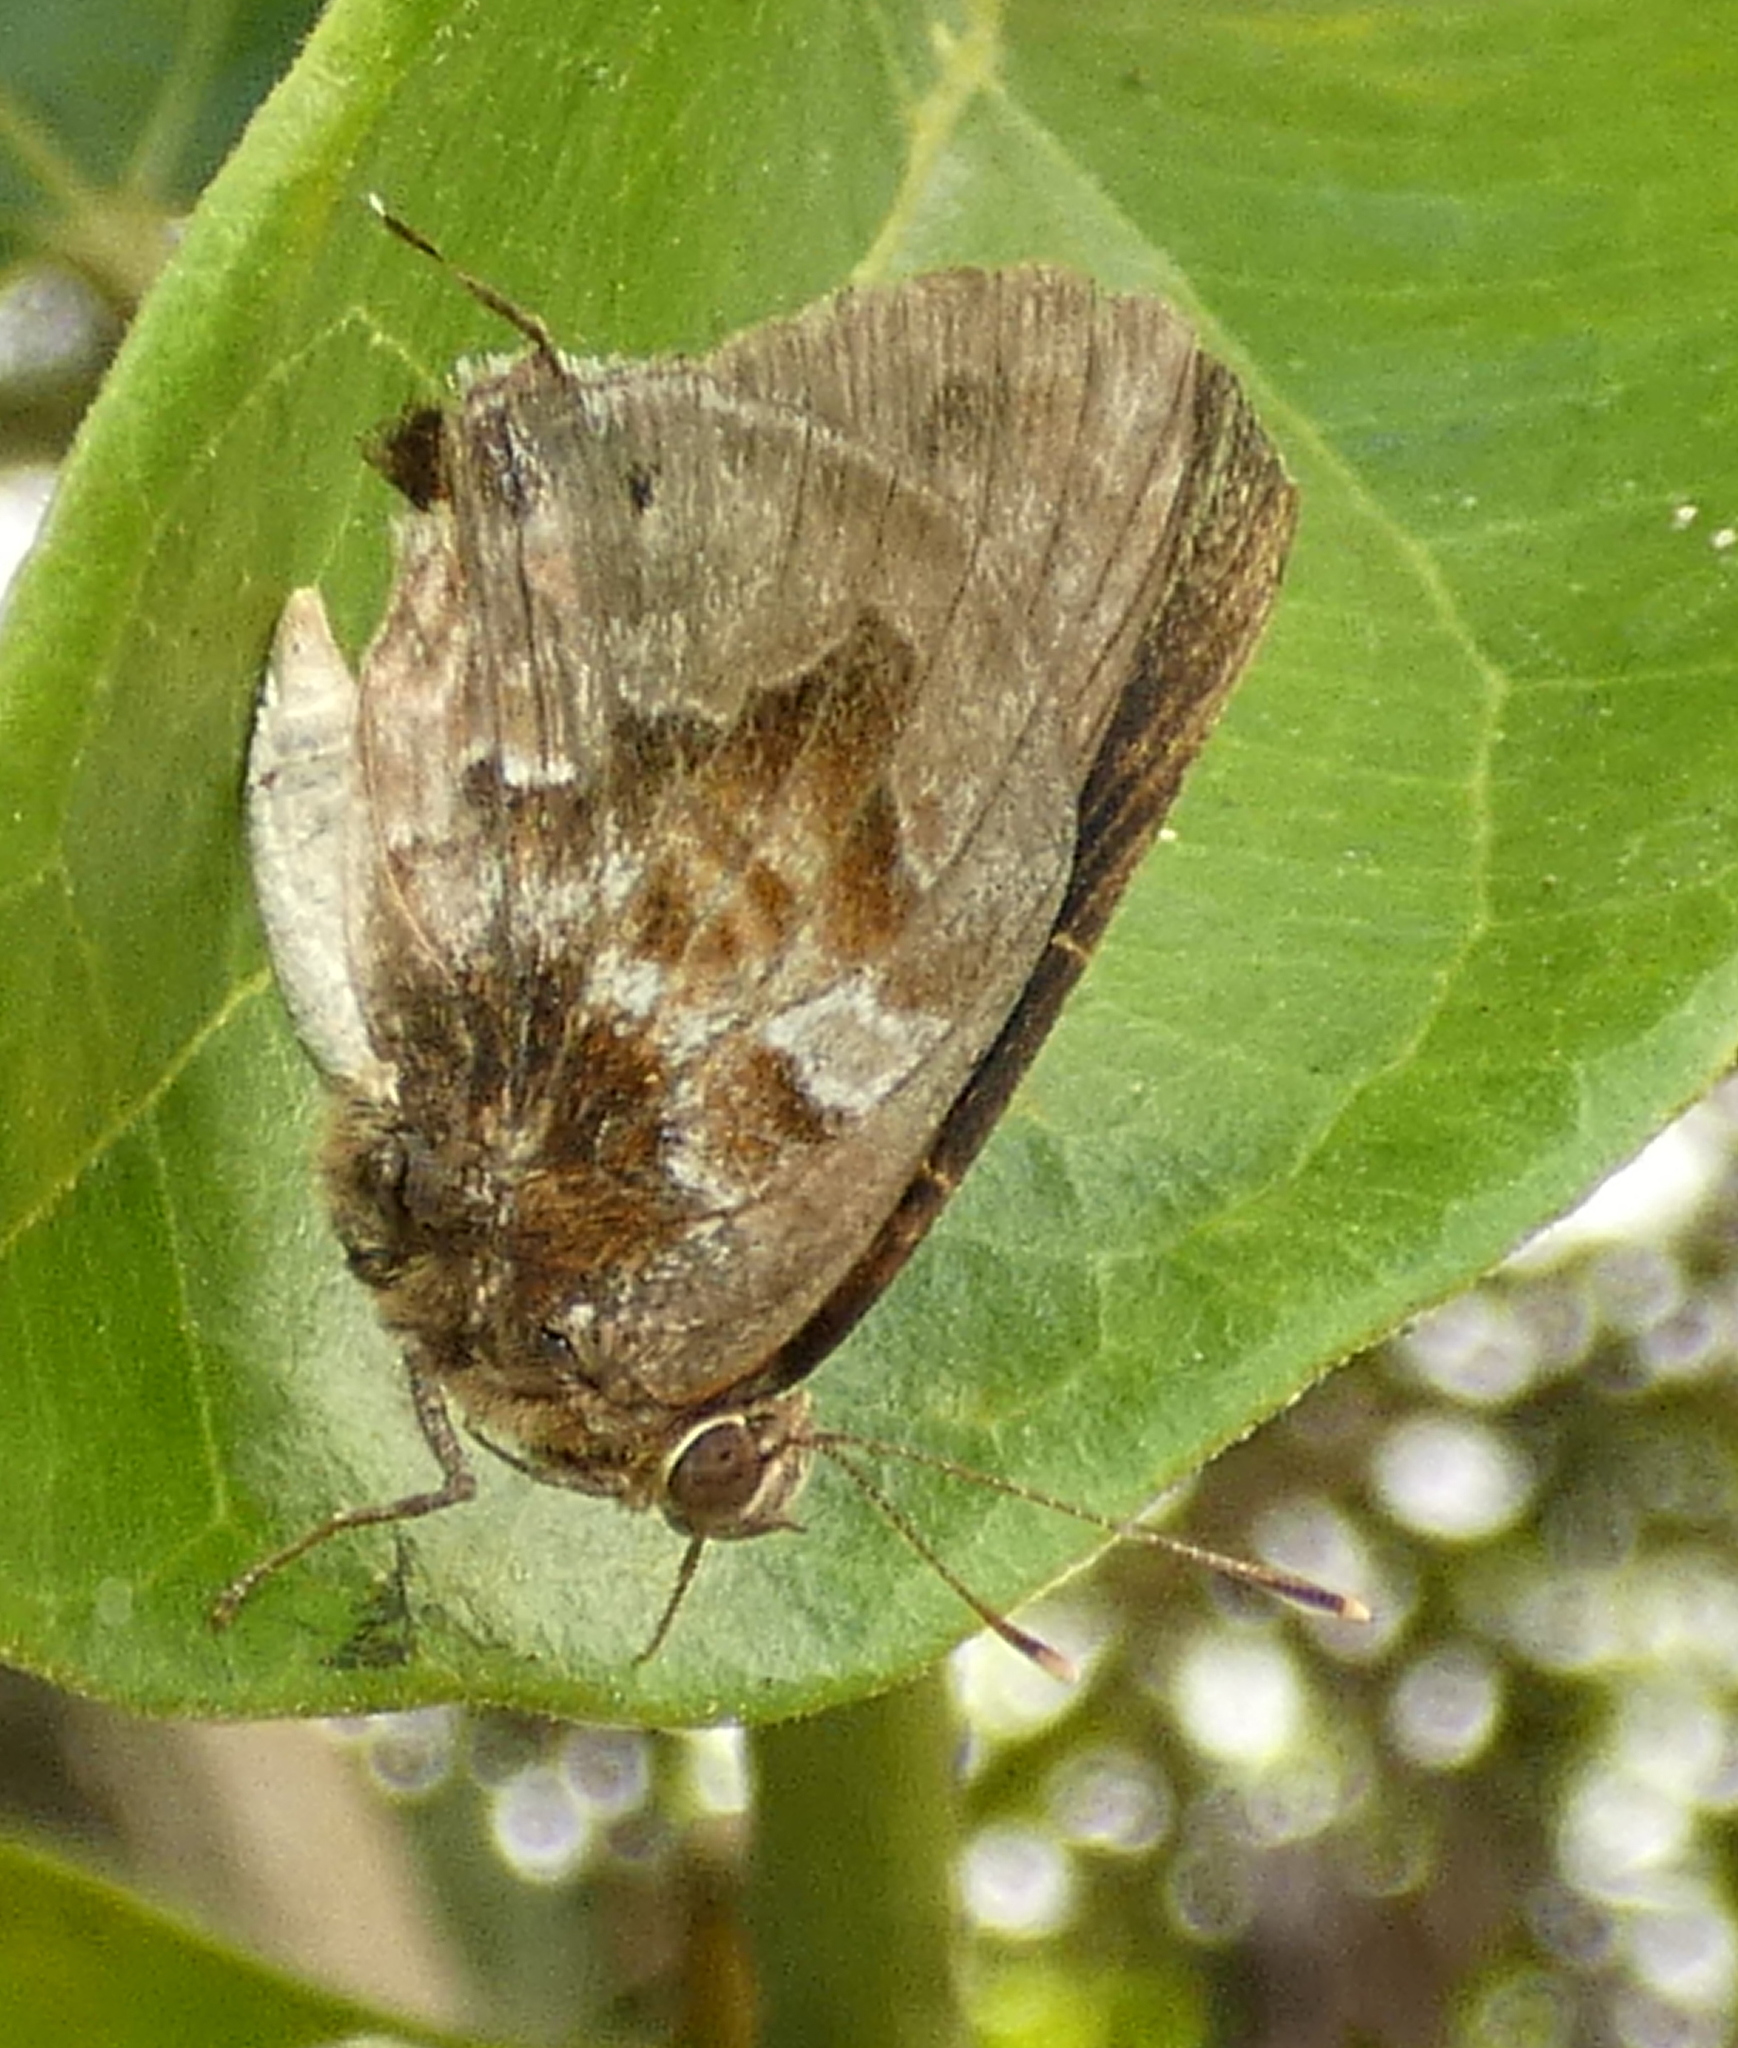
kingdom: Animalia
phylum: Arthropoda
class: Insecta
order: Lepidoptera
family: Lycaenidae
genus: Michaelus
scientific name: Michaelus jebus
